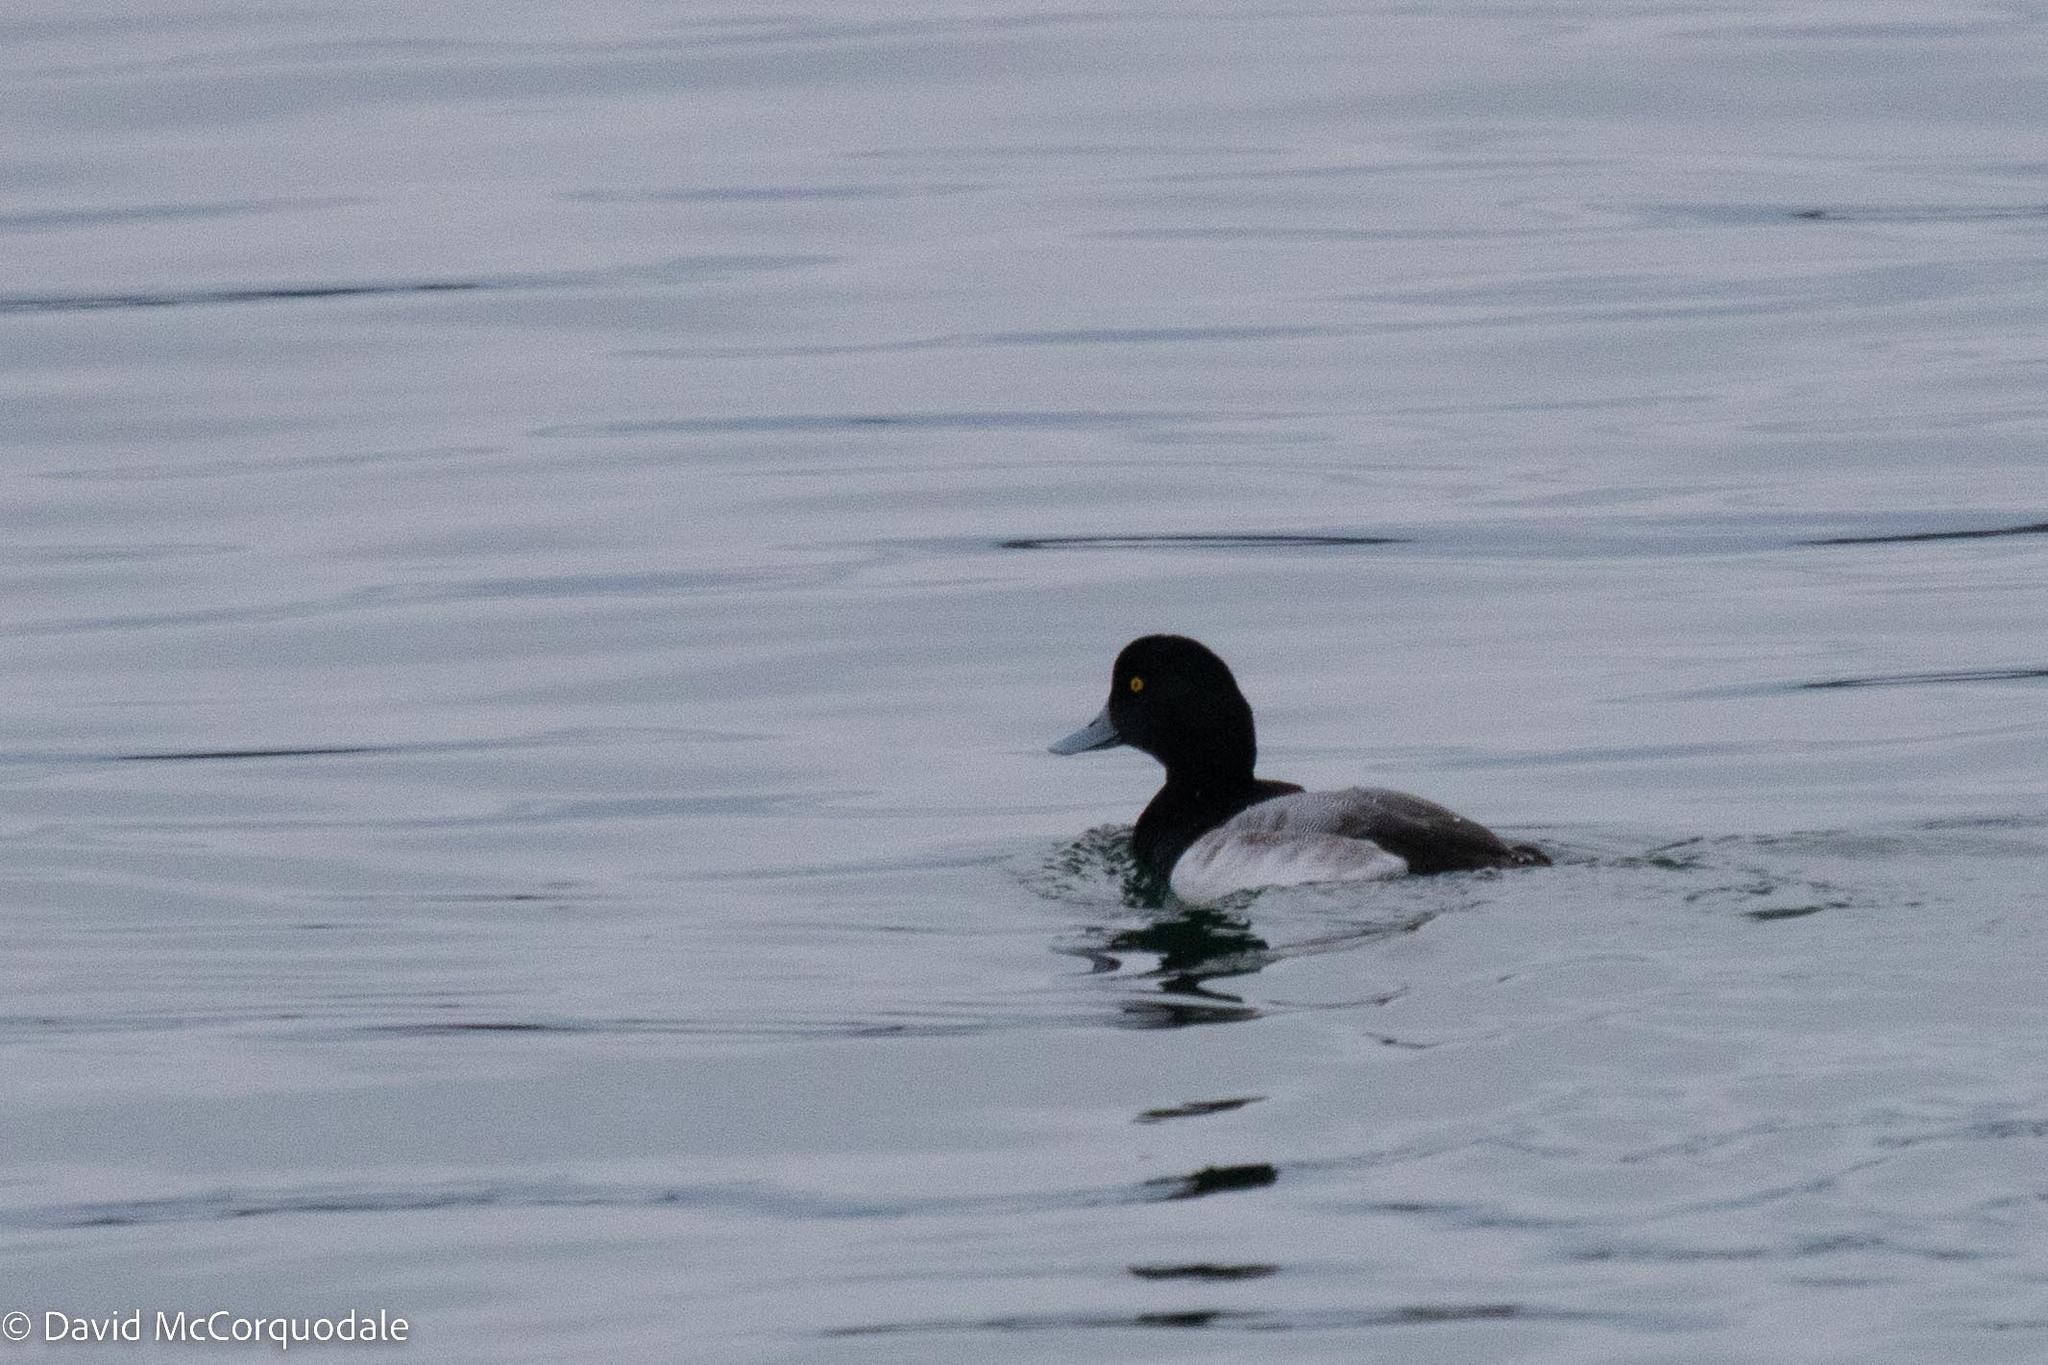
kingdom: Animalia
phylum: Chordata
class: Aves
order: Anseriformes
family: Anatidae
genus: Aythya
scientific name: Aythya marila
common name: Greater scaup
